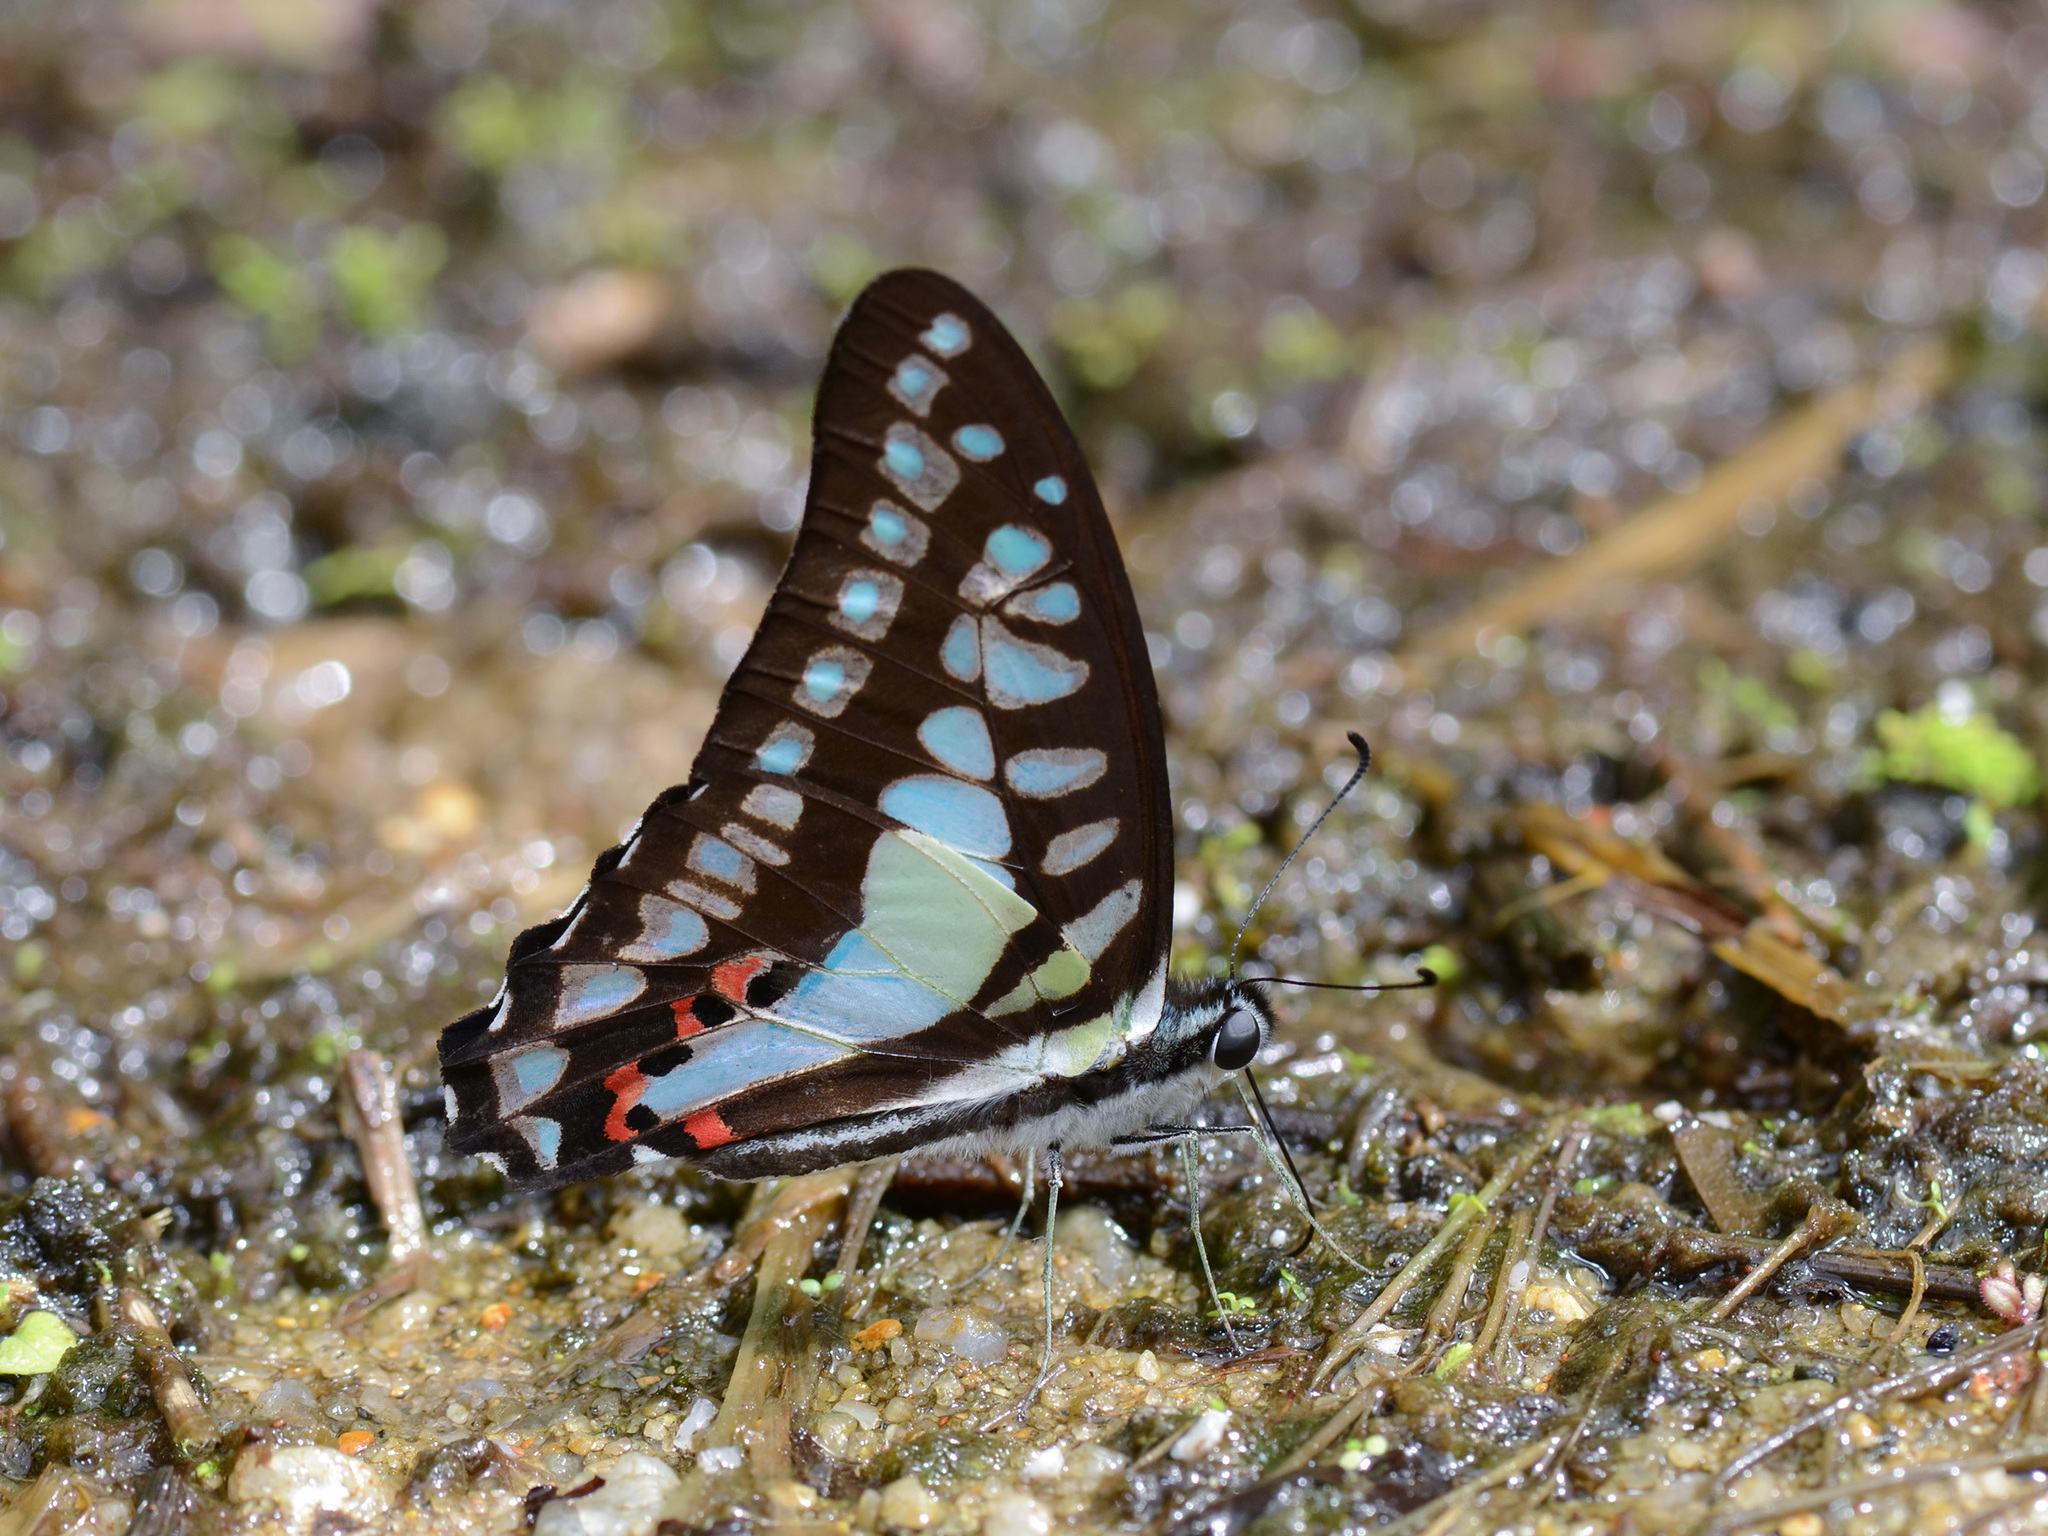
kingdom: Animalia
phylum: Arthropoda
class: Insecta
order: Lepidoptera
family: Papilionidae
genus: Graphium
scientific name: Graphium evemon
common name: Lesser jay
